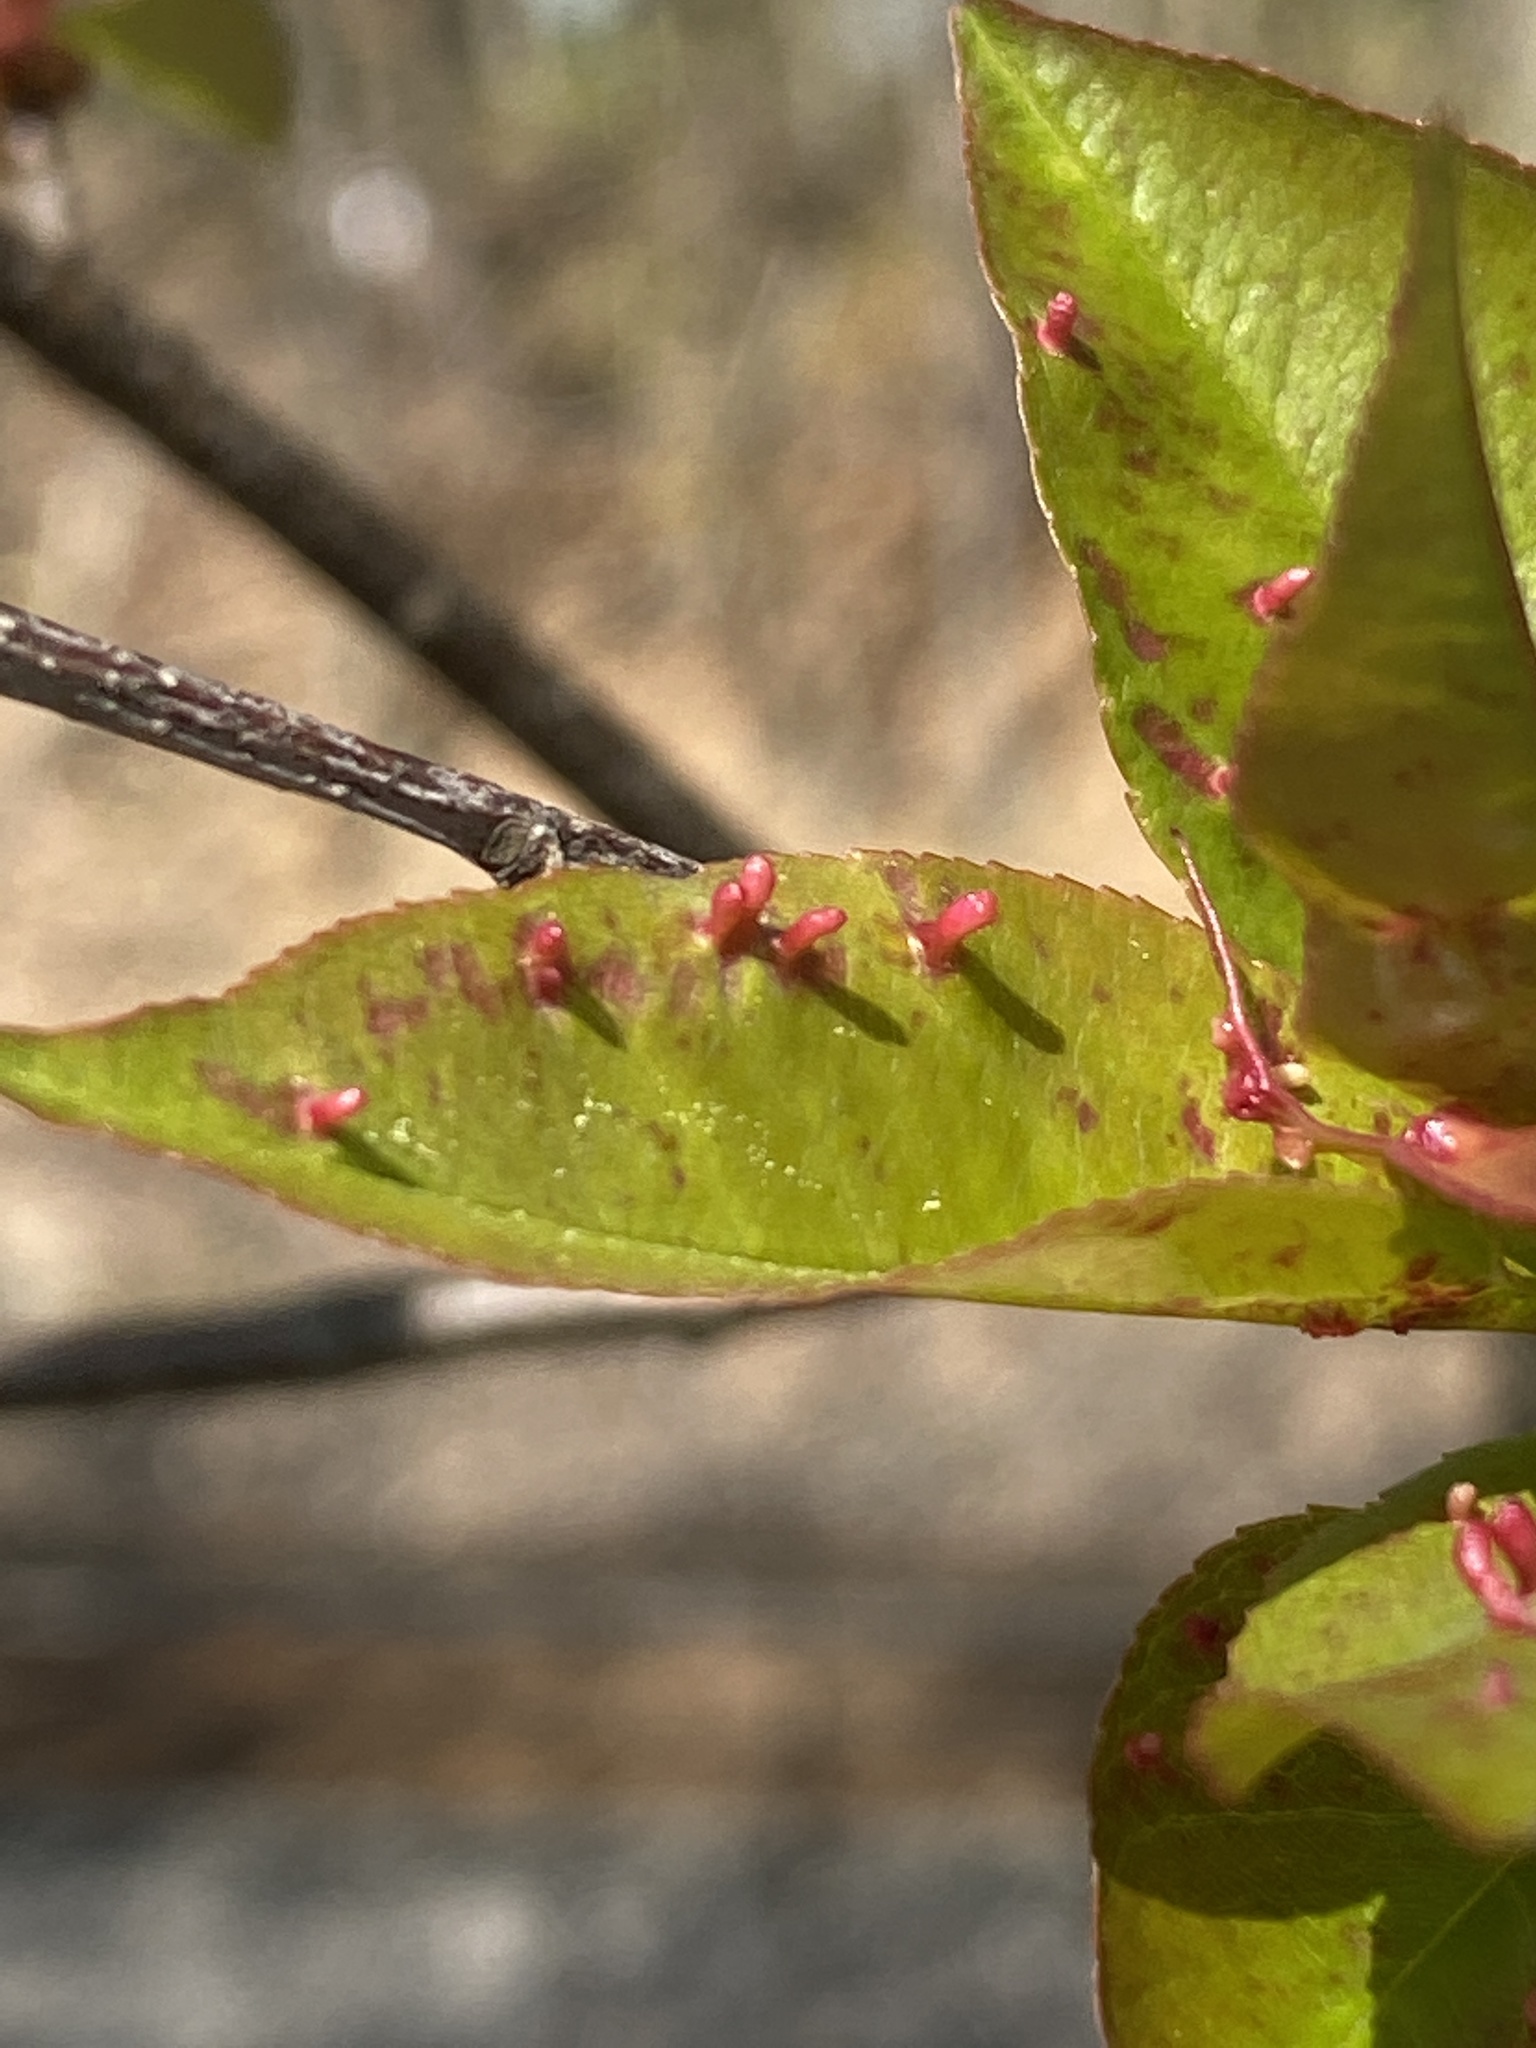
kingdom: Animalia
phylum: Arthropoda
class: Arachnida
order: Trombidiformes
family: Eriophyidae
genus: Eriophyes
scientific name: Eriophyes
